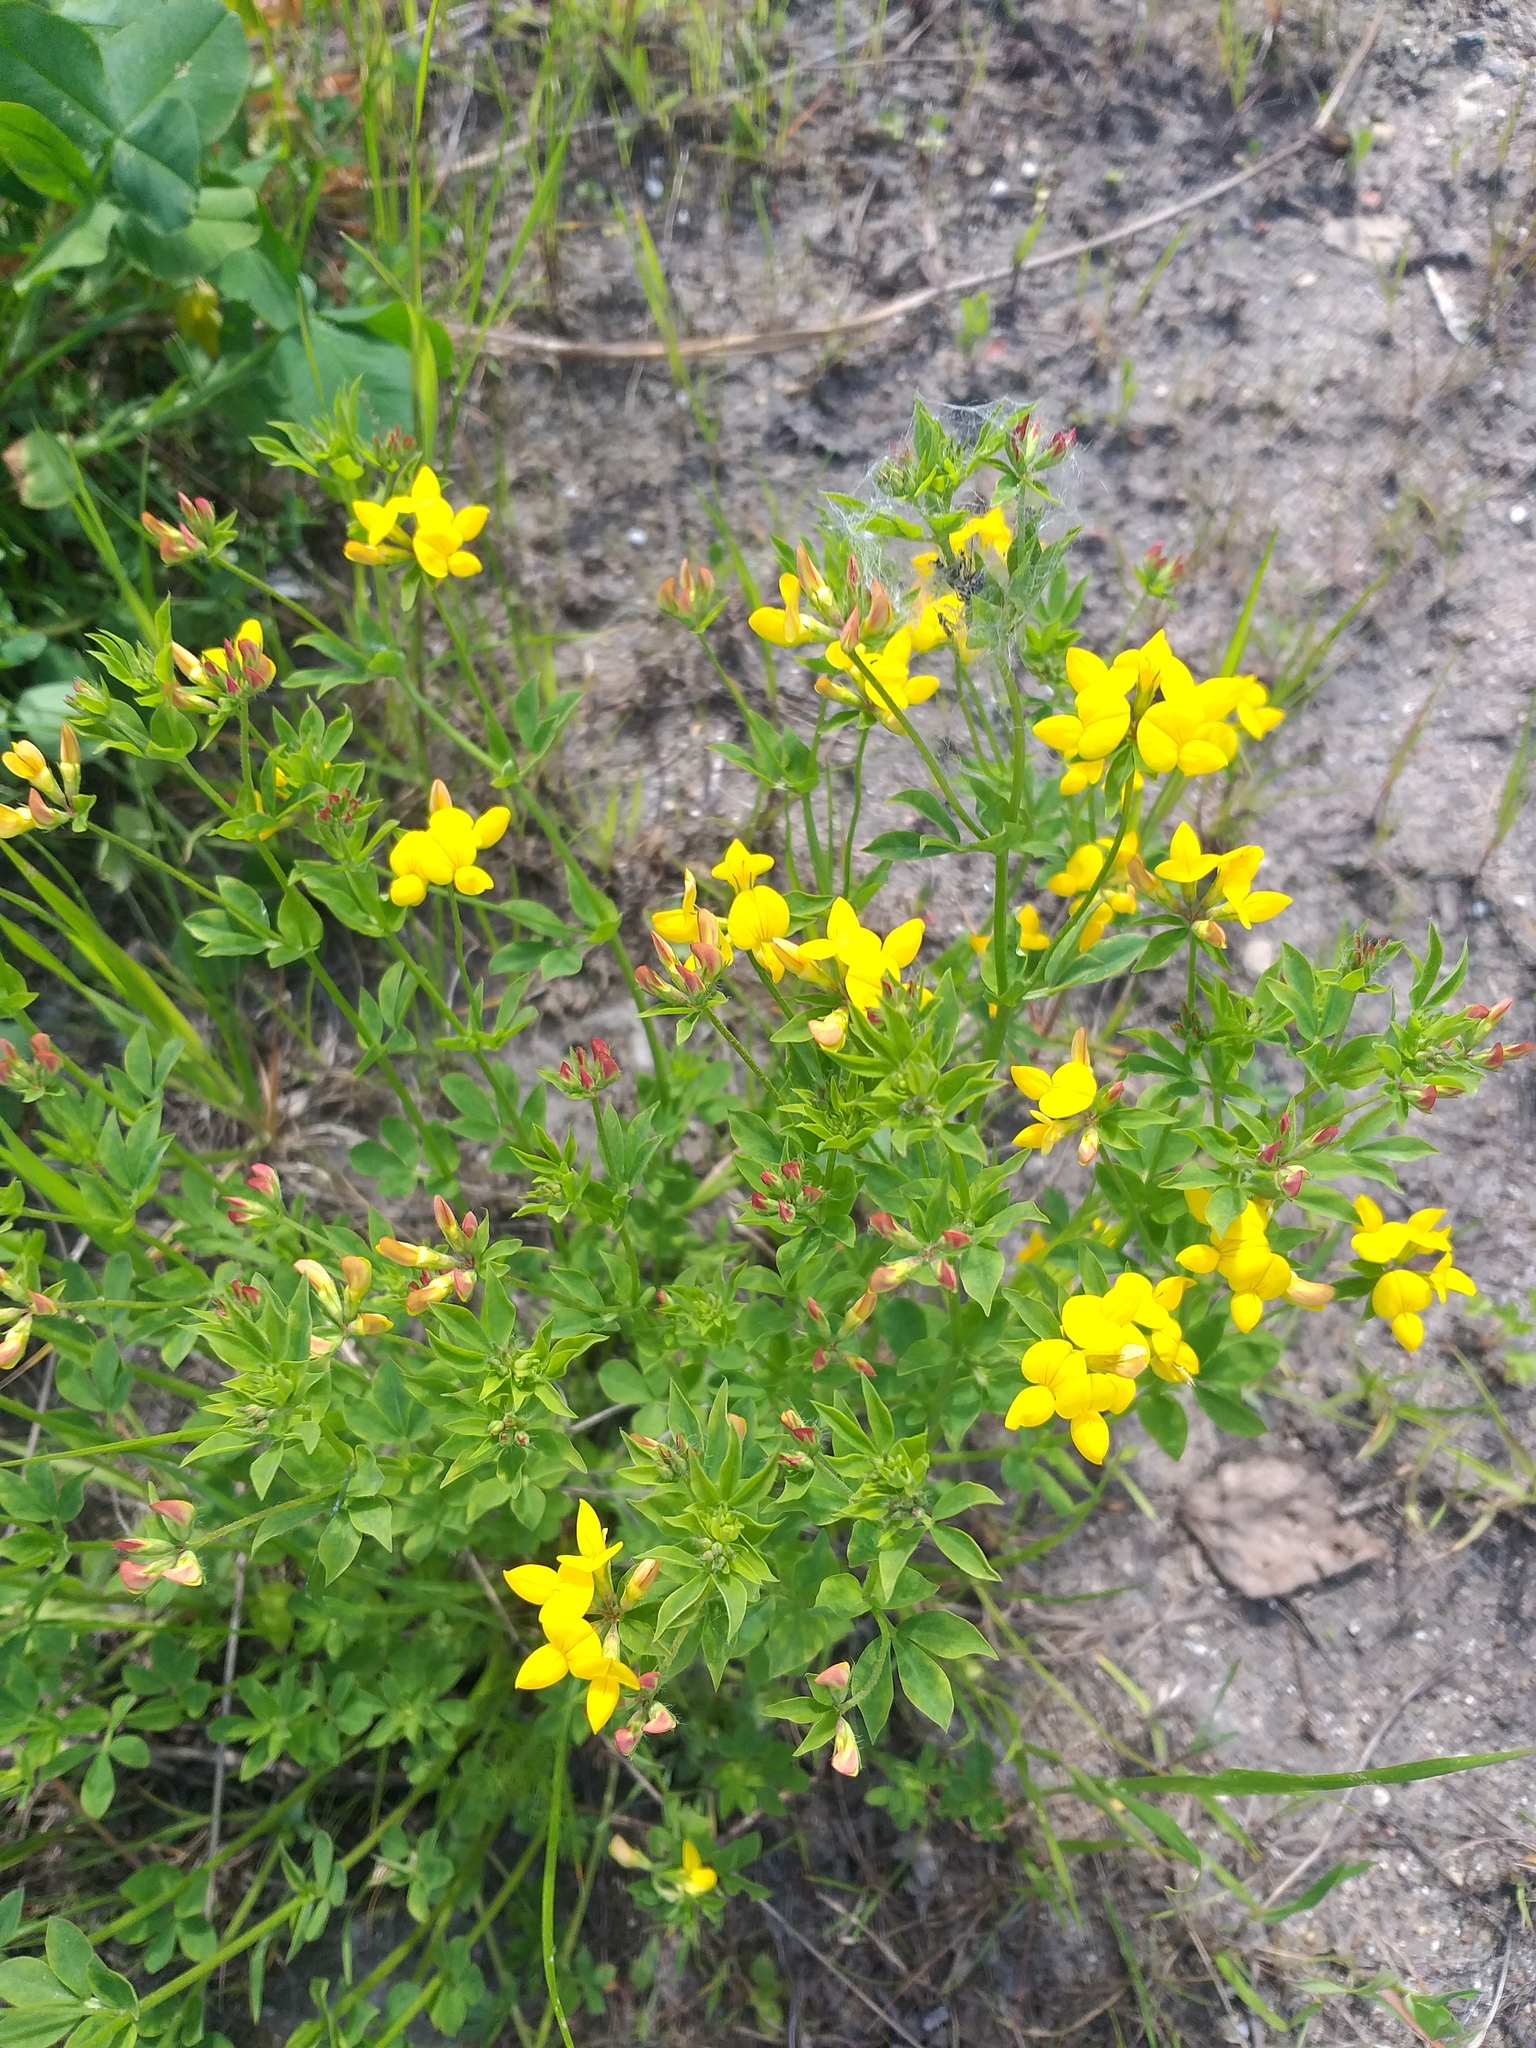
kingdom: Plantae
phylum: Tracheophyta
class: Magnoliopsida
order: Fabales
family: Fabaceae
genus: Lotus
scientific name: Lotus corniculatus
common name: Common bird's-foot-trefoil
